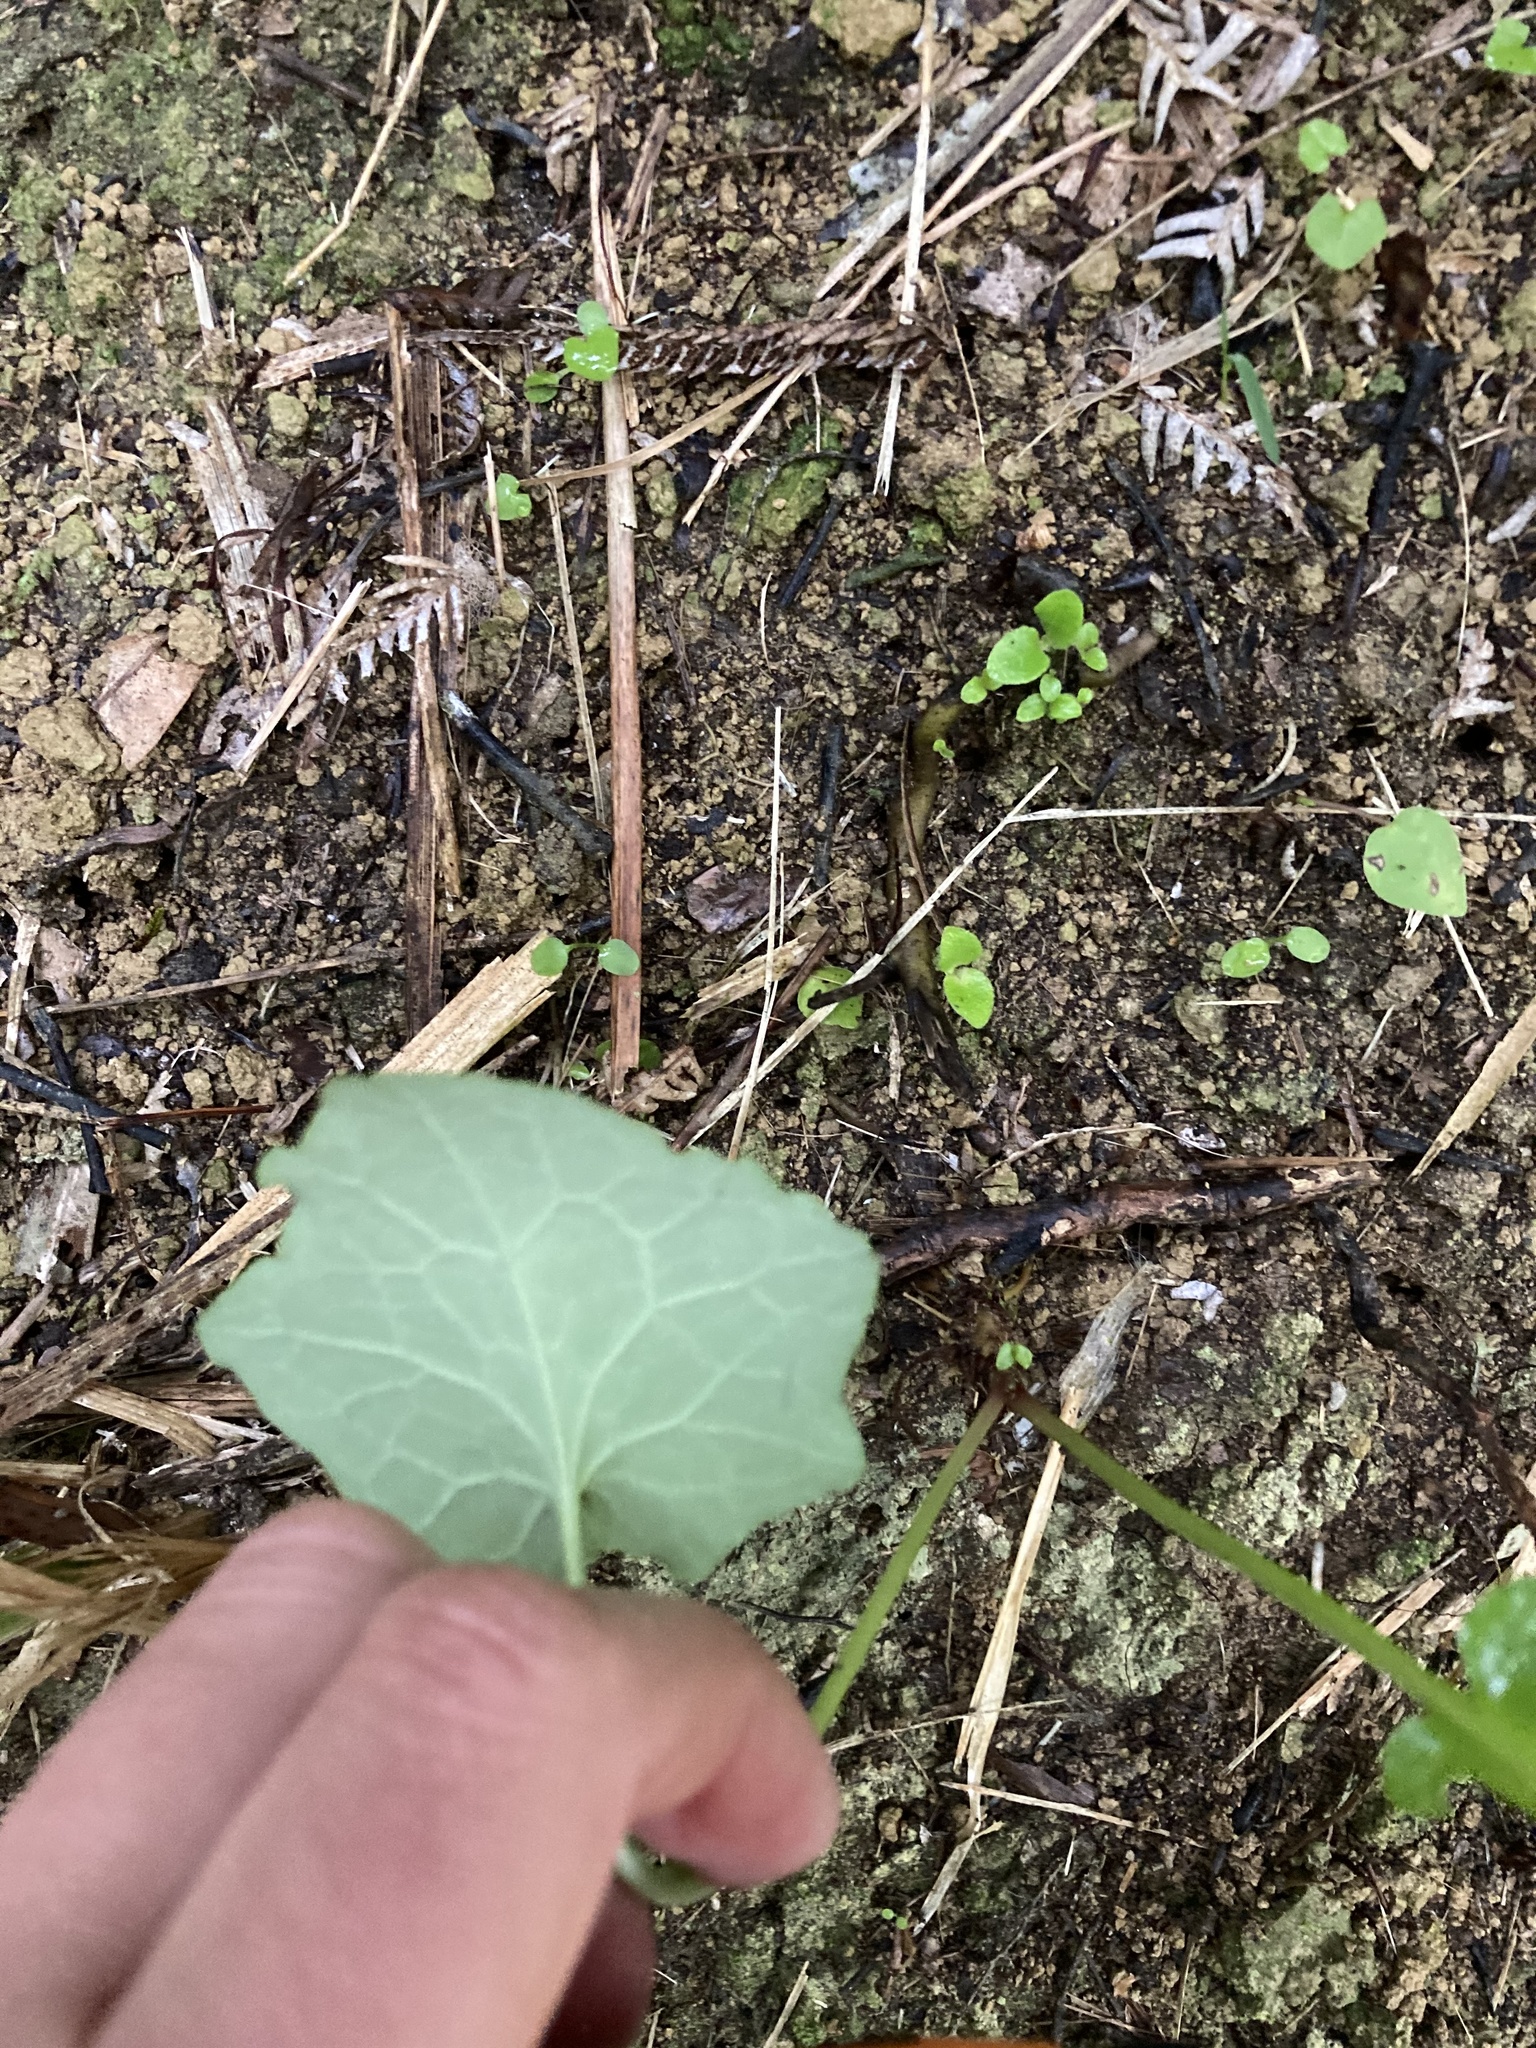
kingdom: Plantae
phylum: Tracheophyta
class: Magnoliopsida
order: Asterales
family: Asteraceae
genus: Mycelis
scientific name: Mycelis muralis
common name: Wall lettuce
